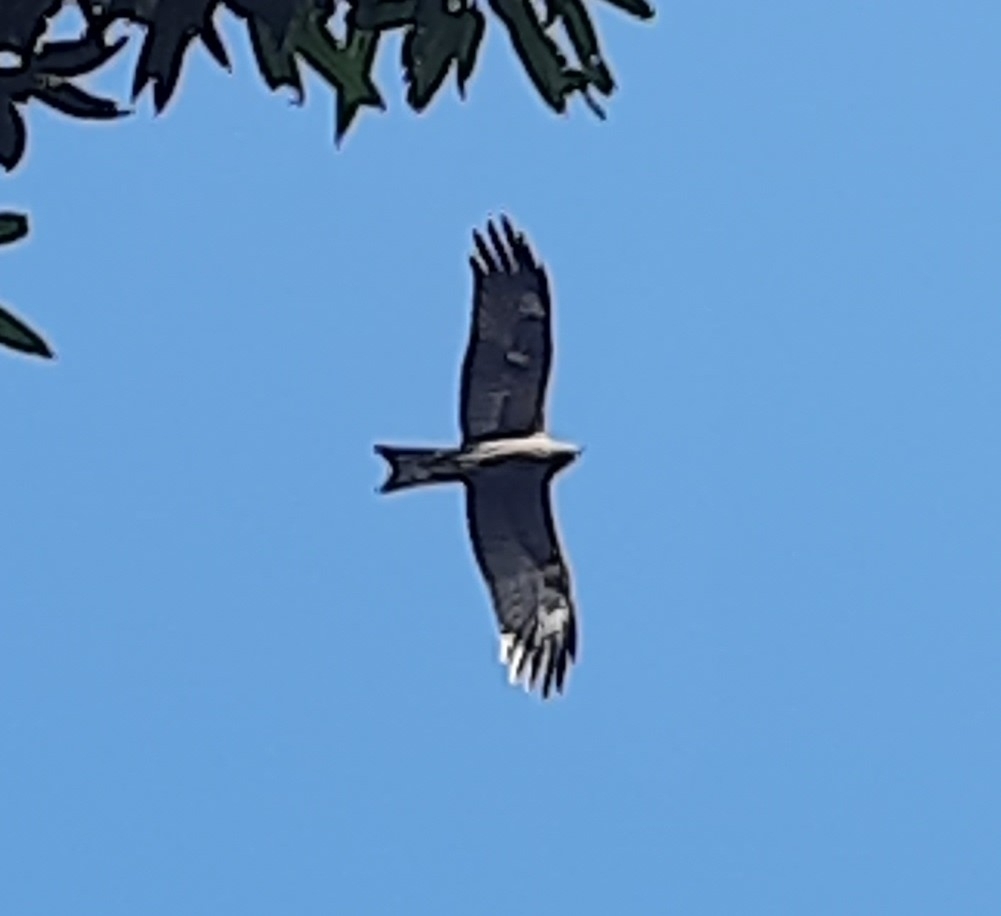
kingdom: Animalia
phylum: Chordata
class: Aves
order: Accipitriformes
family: Accipitridae
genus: Milvus
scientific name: Milvus migrans
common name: Black kite
